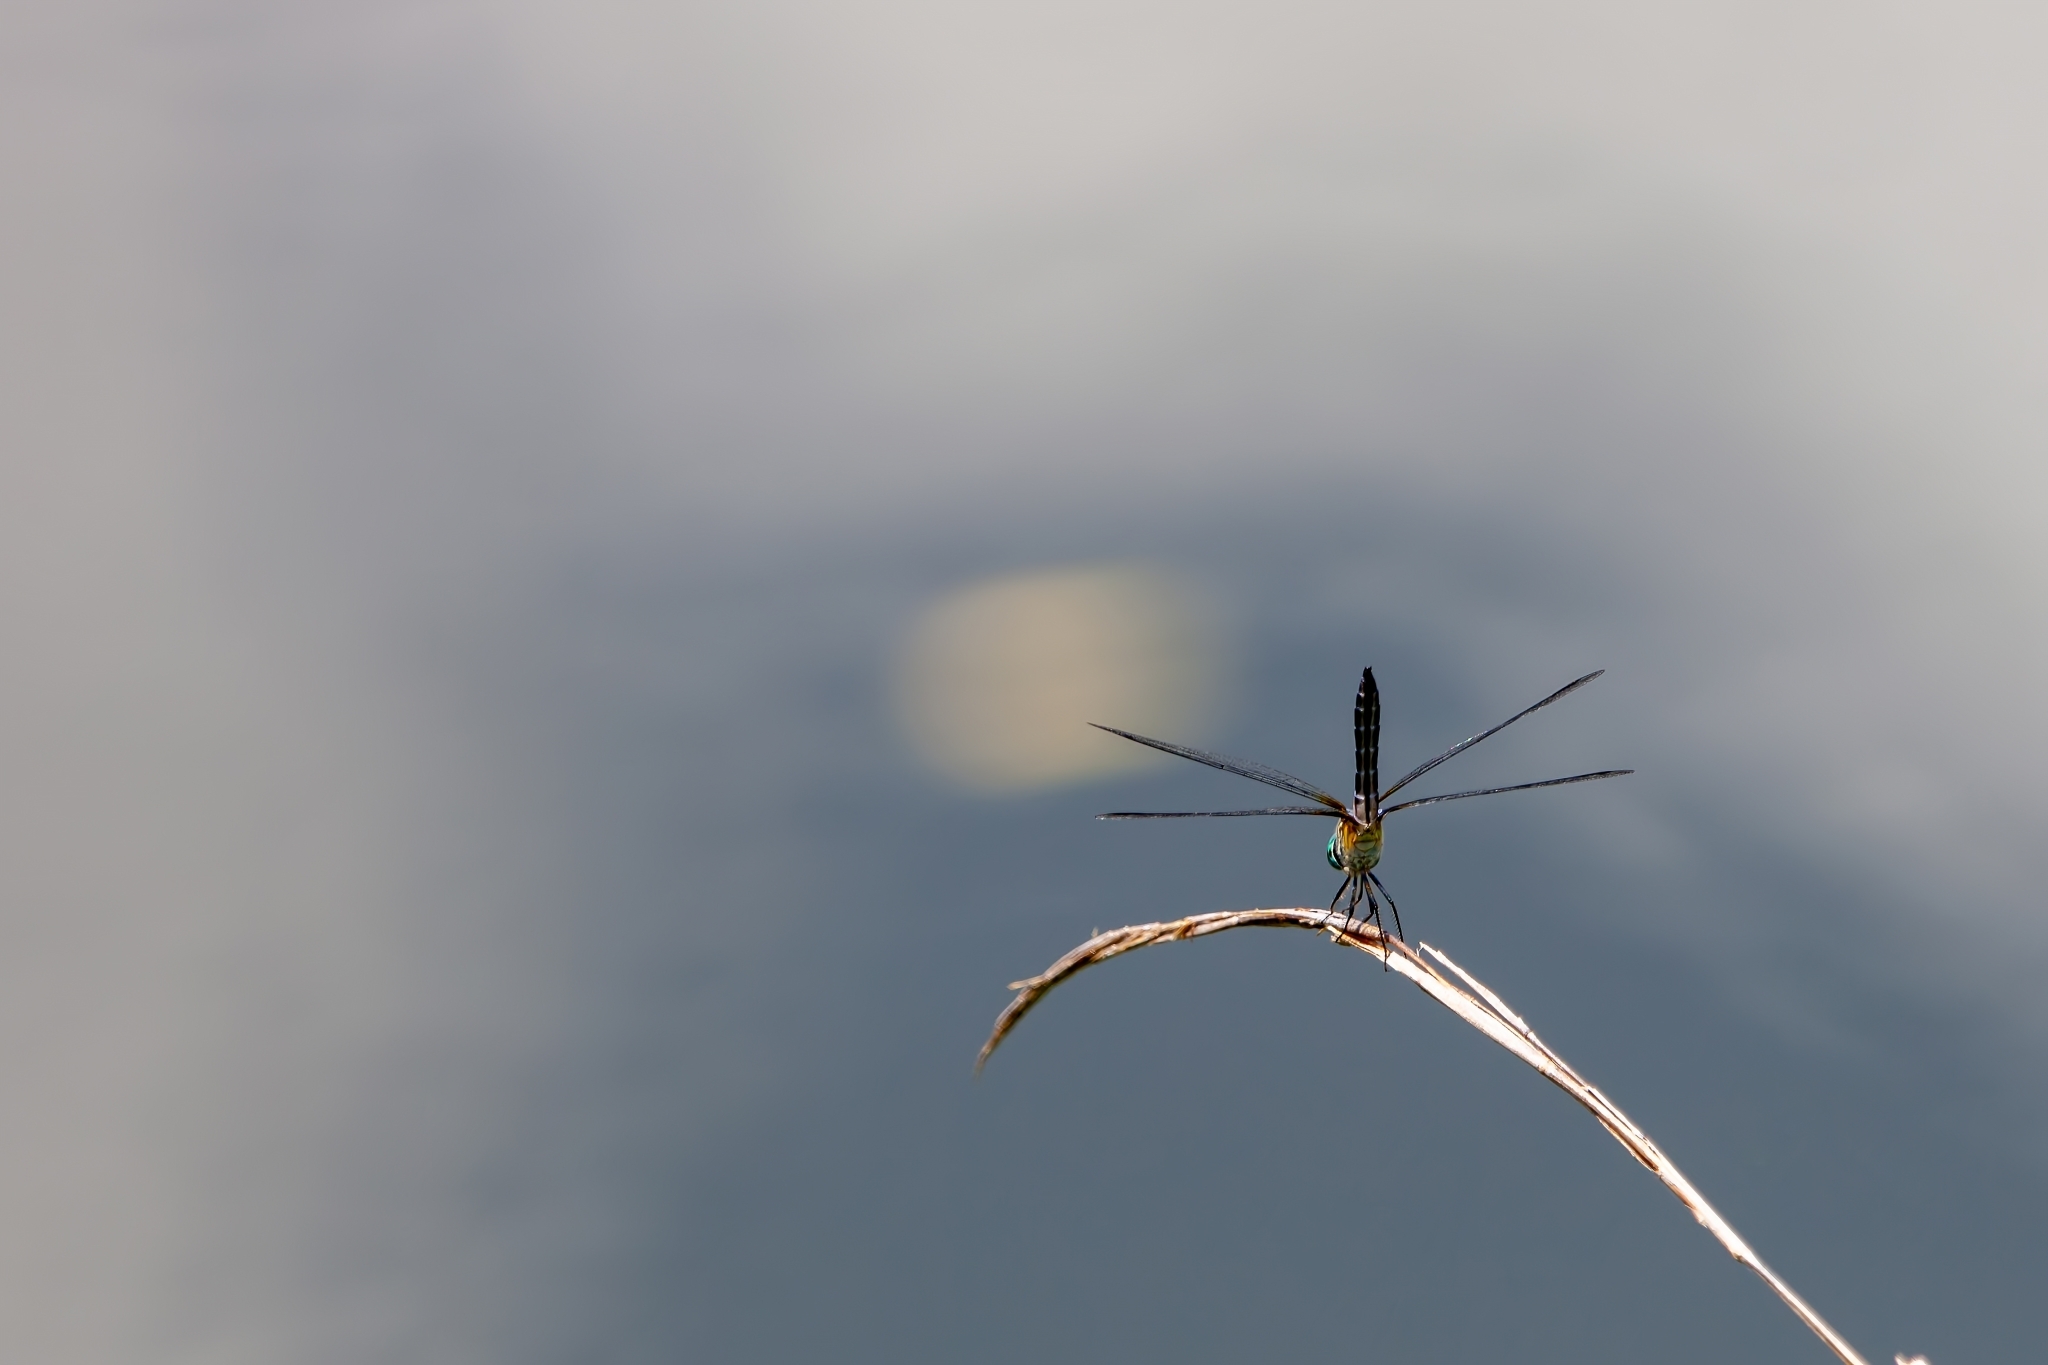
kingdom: Animalia
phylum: Arthropoda
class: Insecta
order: Odonata
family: Libellulidae
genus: Pachydiplax
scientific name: Pachydiplax longipennis
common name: Blue dasher
